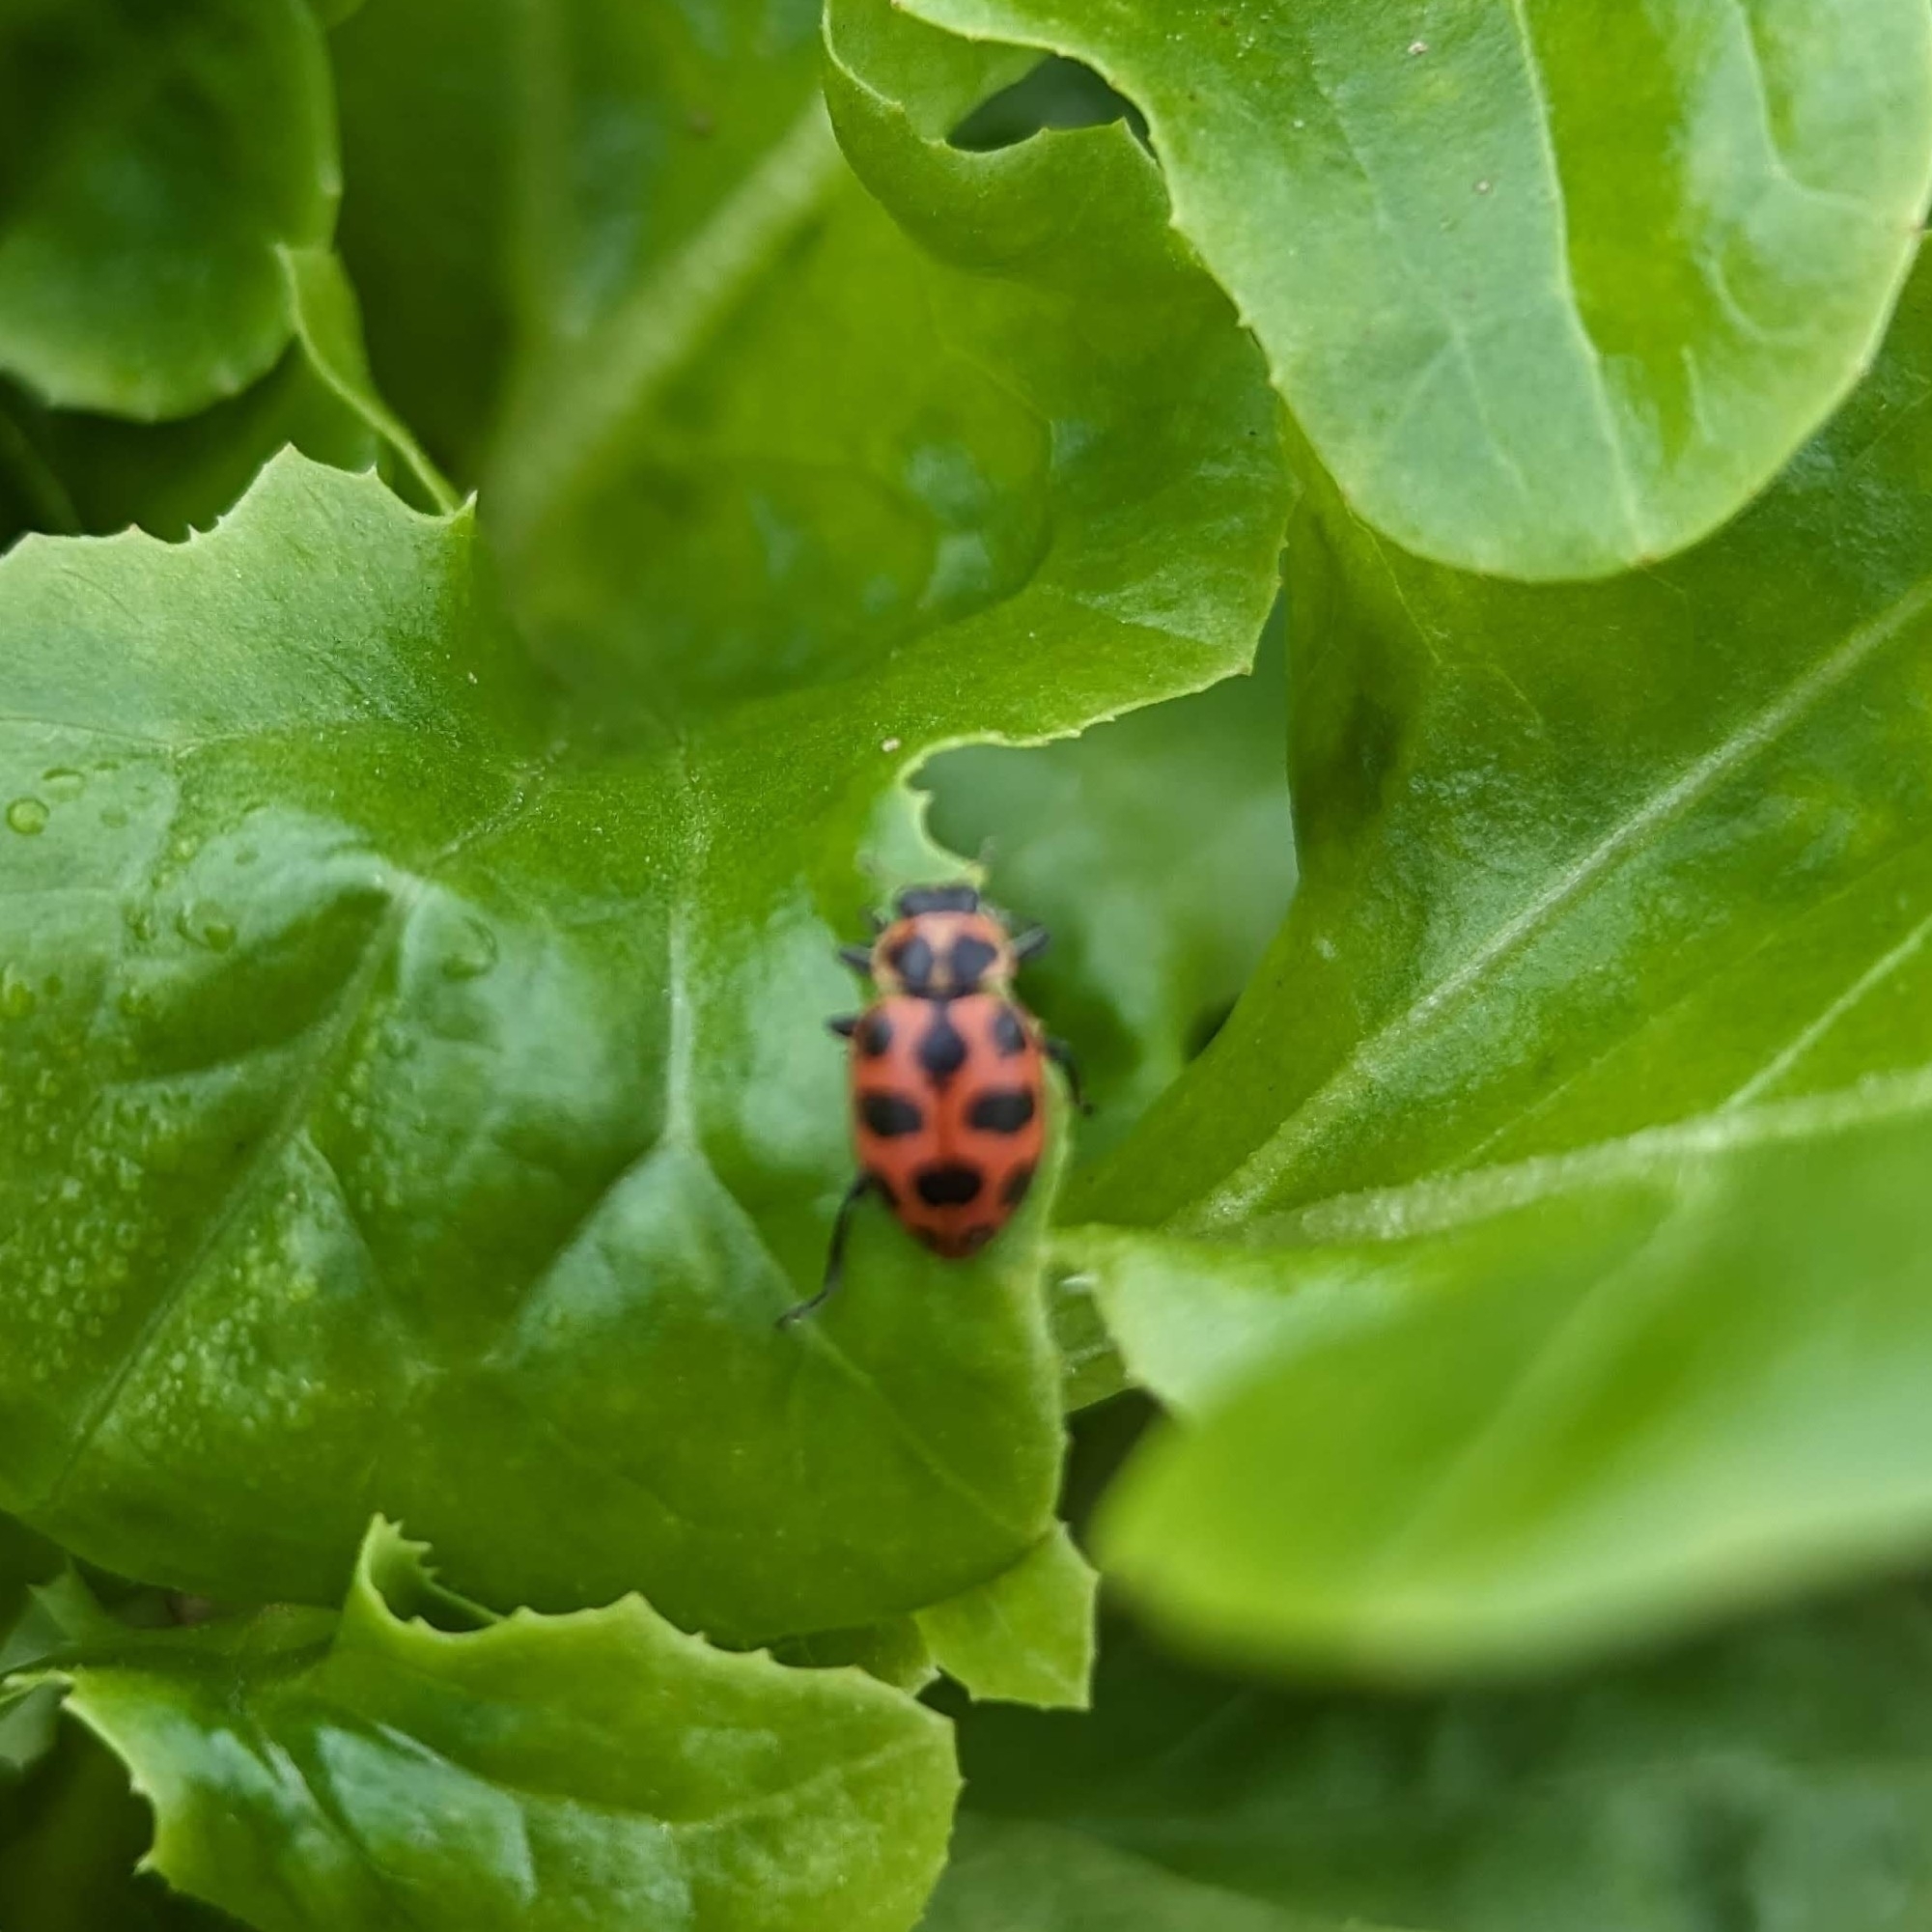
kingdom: Animalia
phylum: Arthropoda
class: Insecta
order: Coleoptera
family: Coccinellidae
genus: Coleomegilla
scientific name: Coleomegilla maculata
